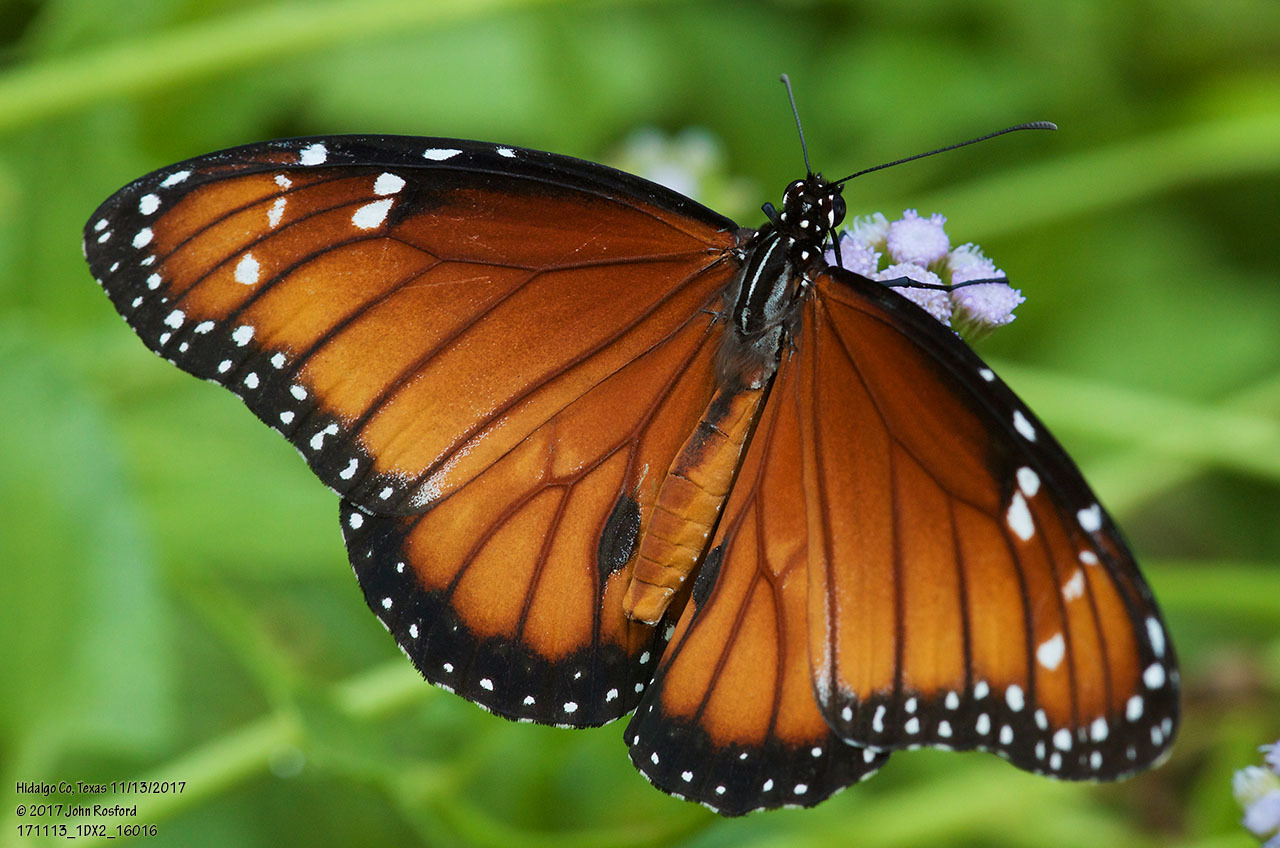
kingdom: Animalia
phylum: Arthropoda
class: Insecta
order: Lepidoptera
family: Nymphalidae
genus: Danaus
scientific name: Danaus eresimus
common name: Soldier
